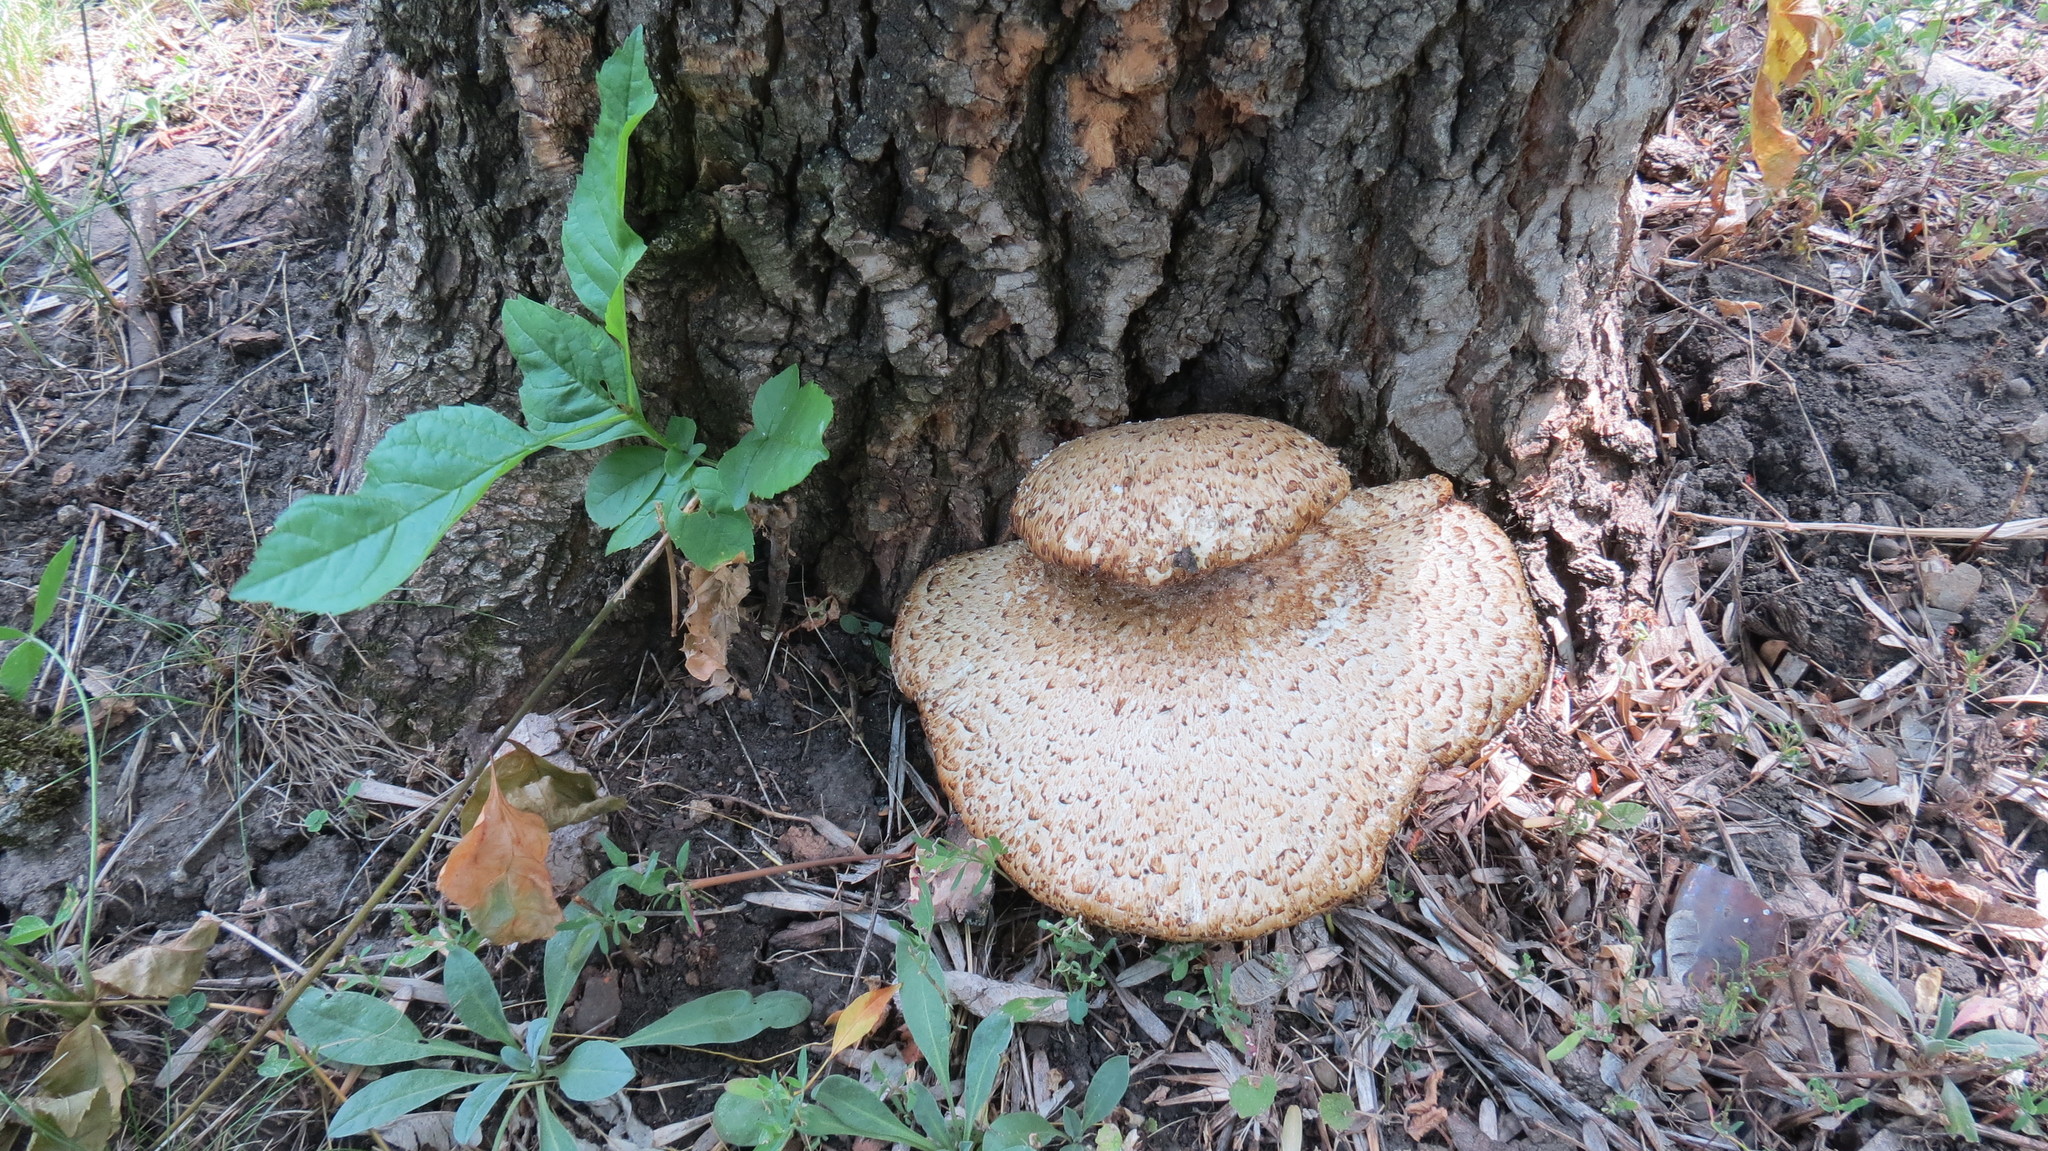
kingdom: Fungi
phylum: Basidiomycota
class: Agaricomycetes
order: Polyporales
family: Polyporaceae
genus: Cerioporus
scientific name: Cerioporus squamosus
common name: Dryad's saddle
